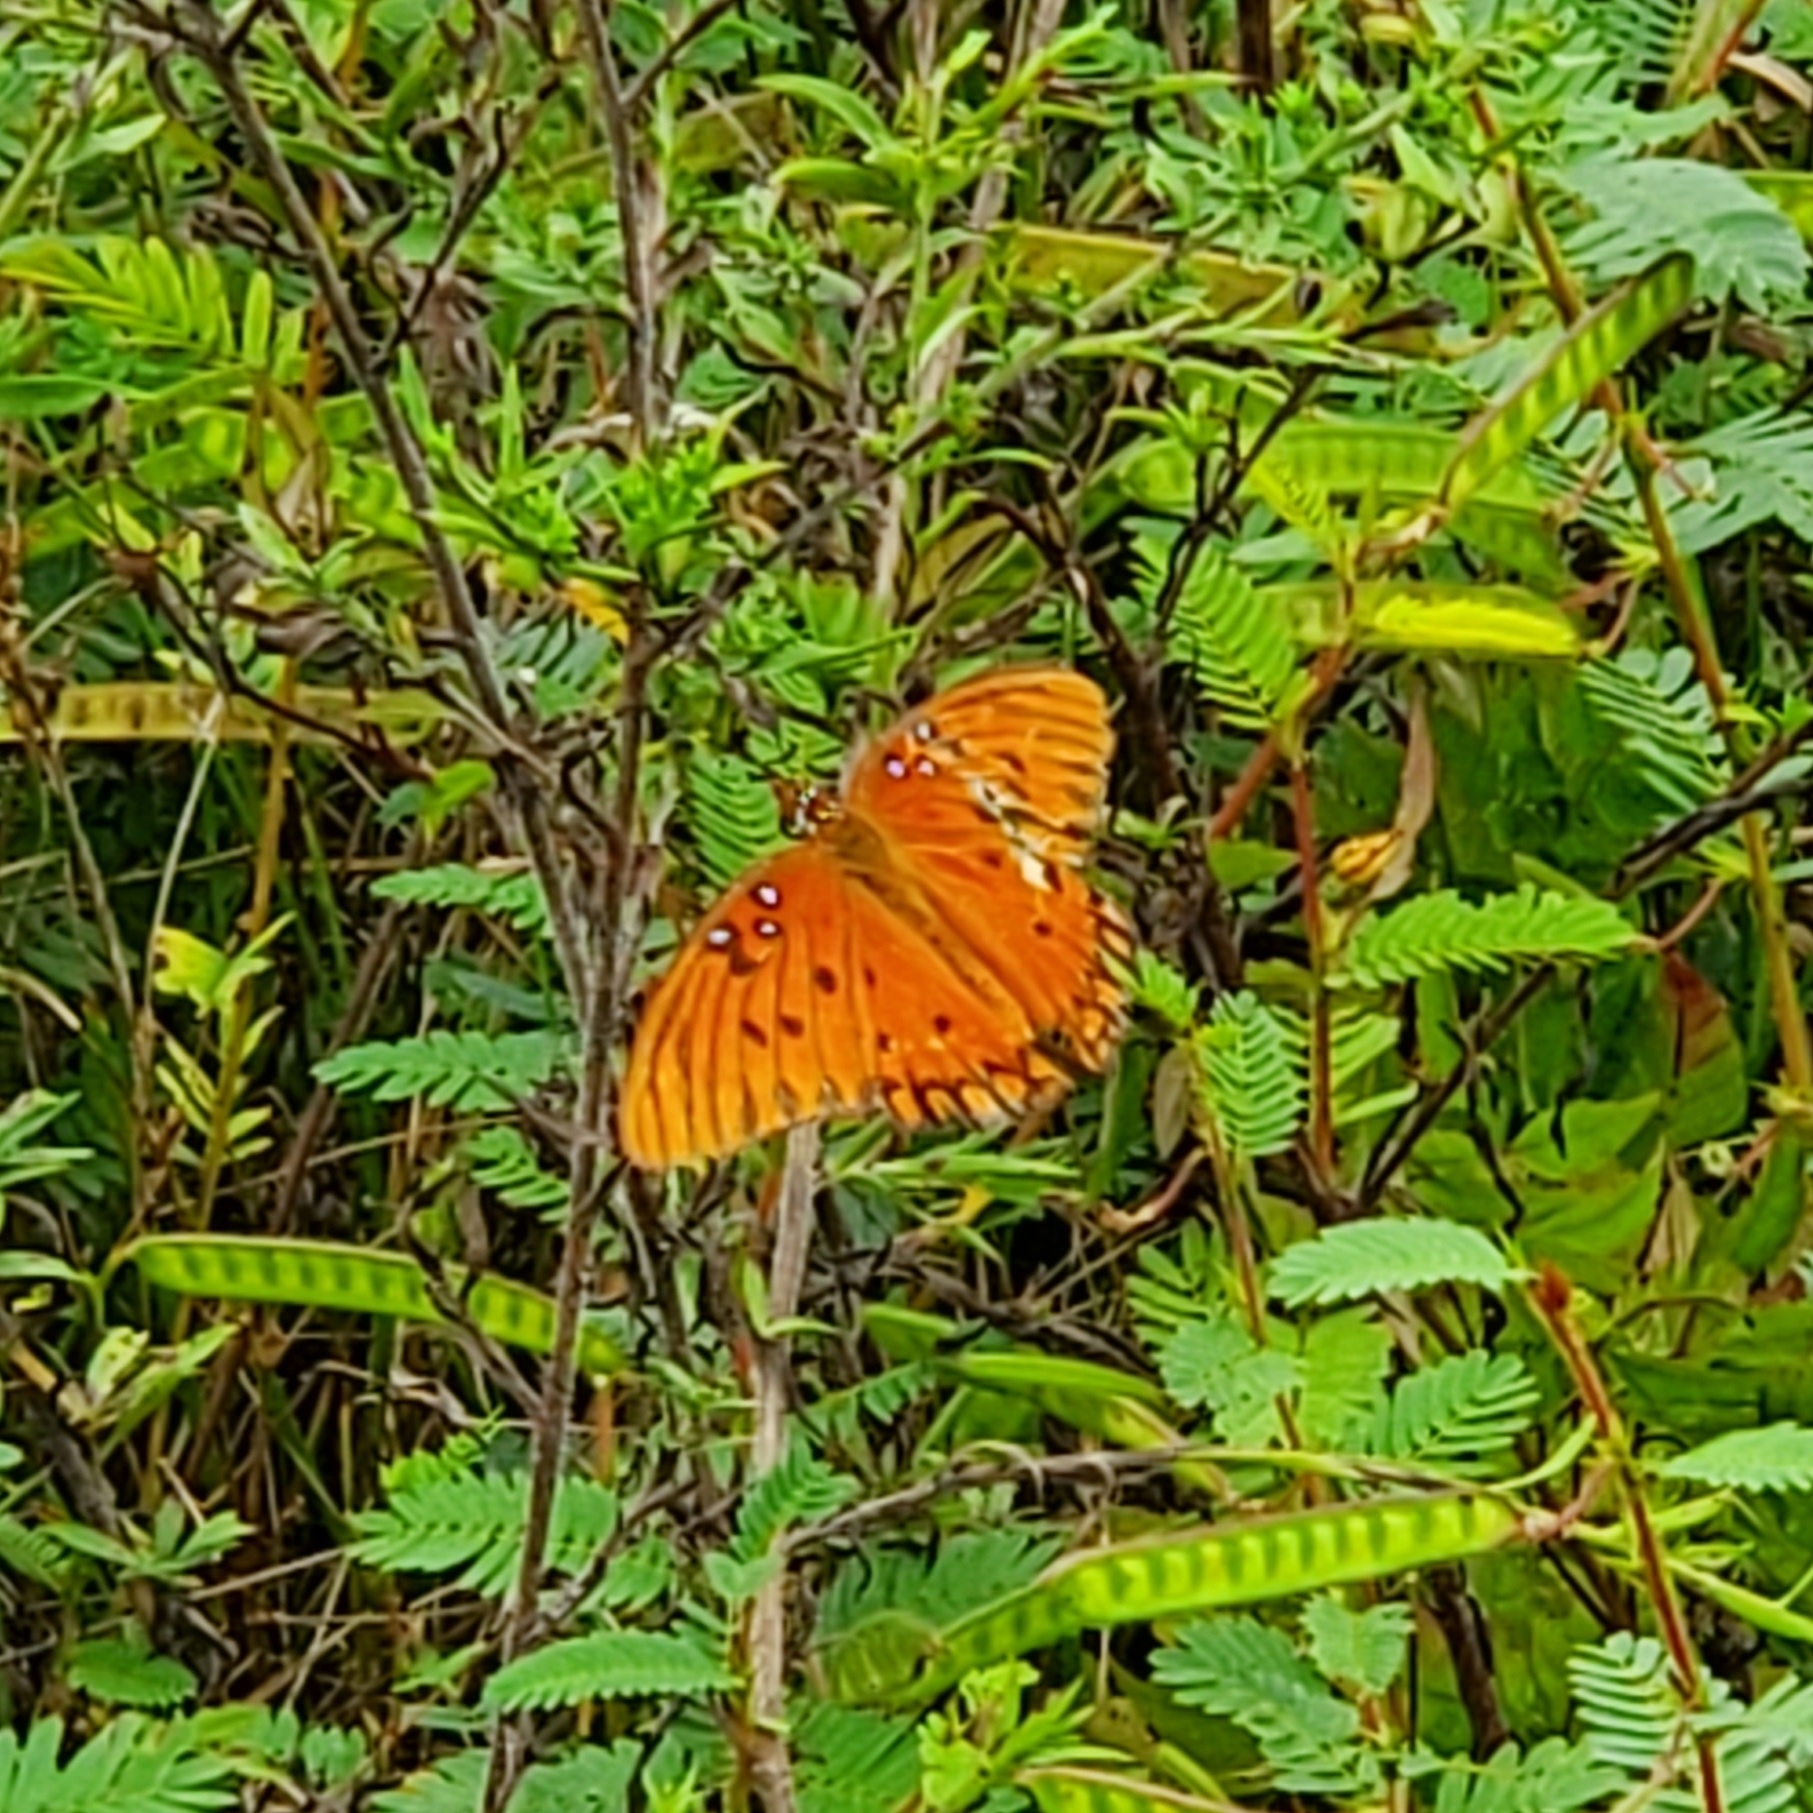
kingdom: Animalia
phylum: Arthropoda
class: Insecta
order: Lepidoptera
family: Nymphalidae
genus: Dione
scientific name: Dione vanillae
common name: Gulf fritillary
